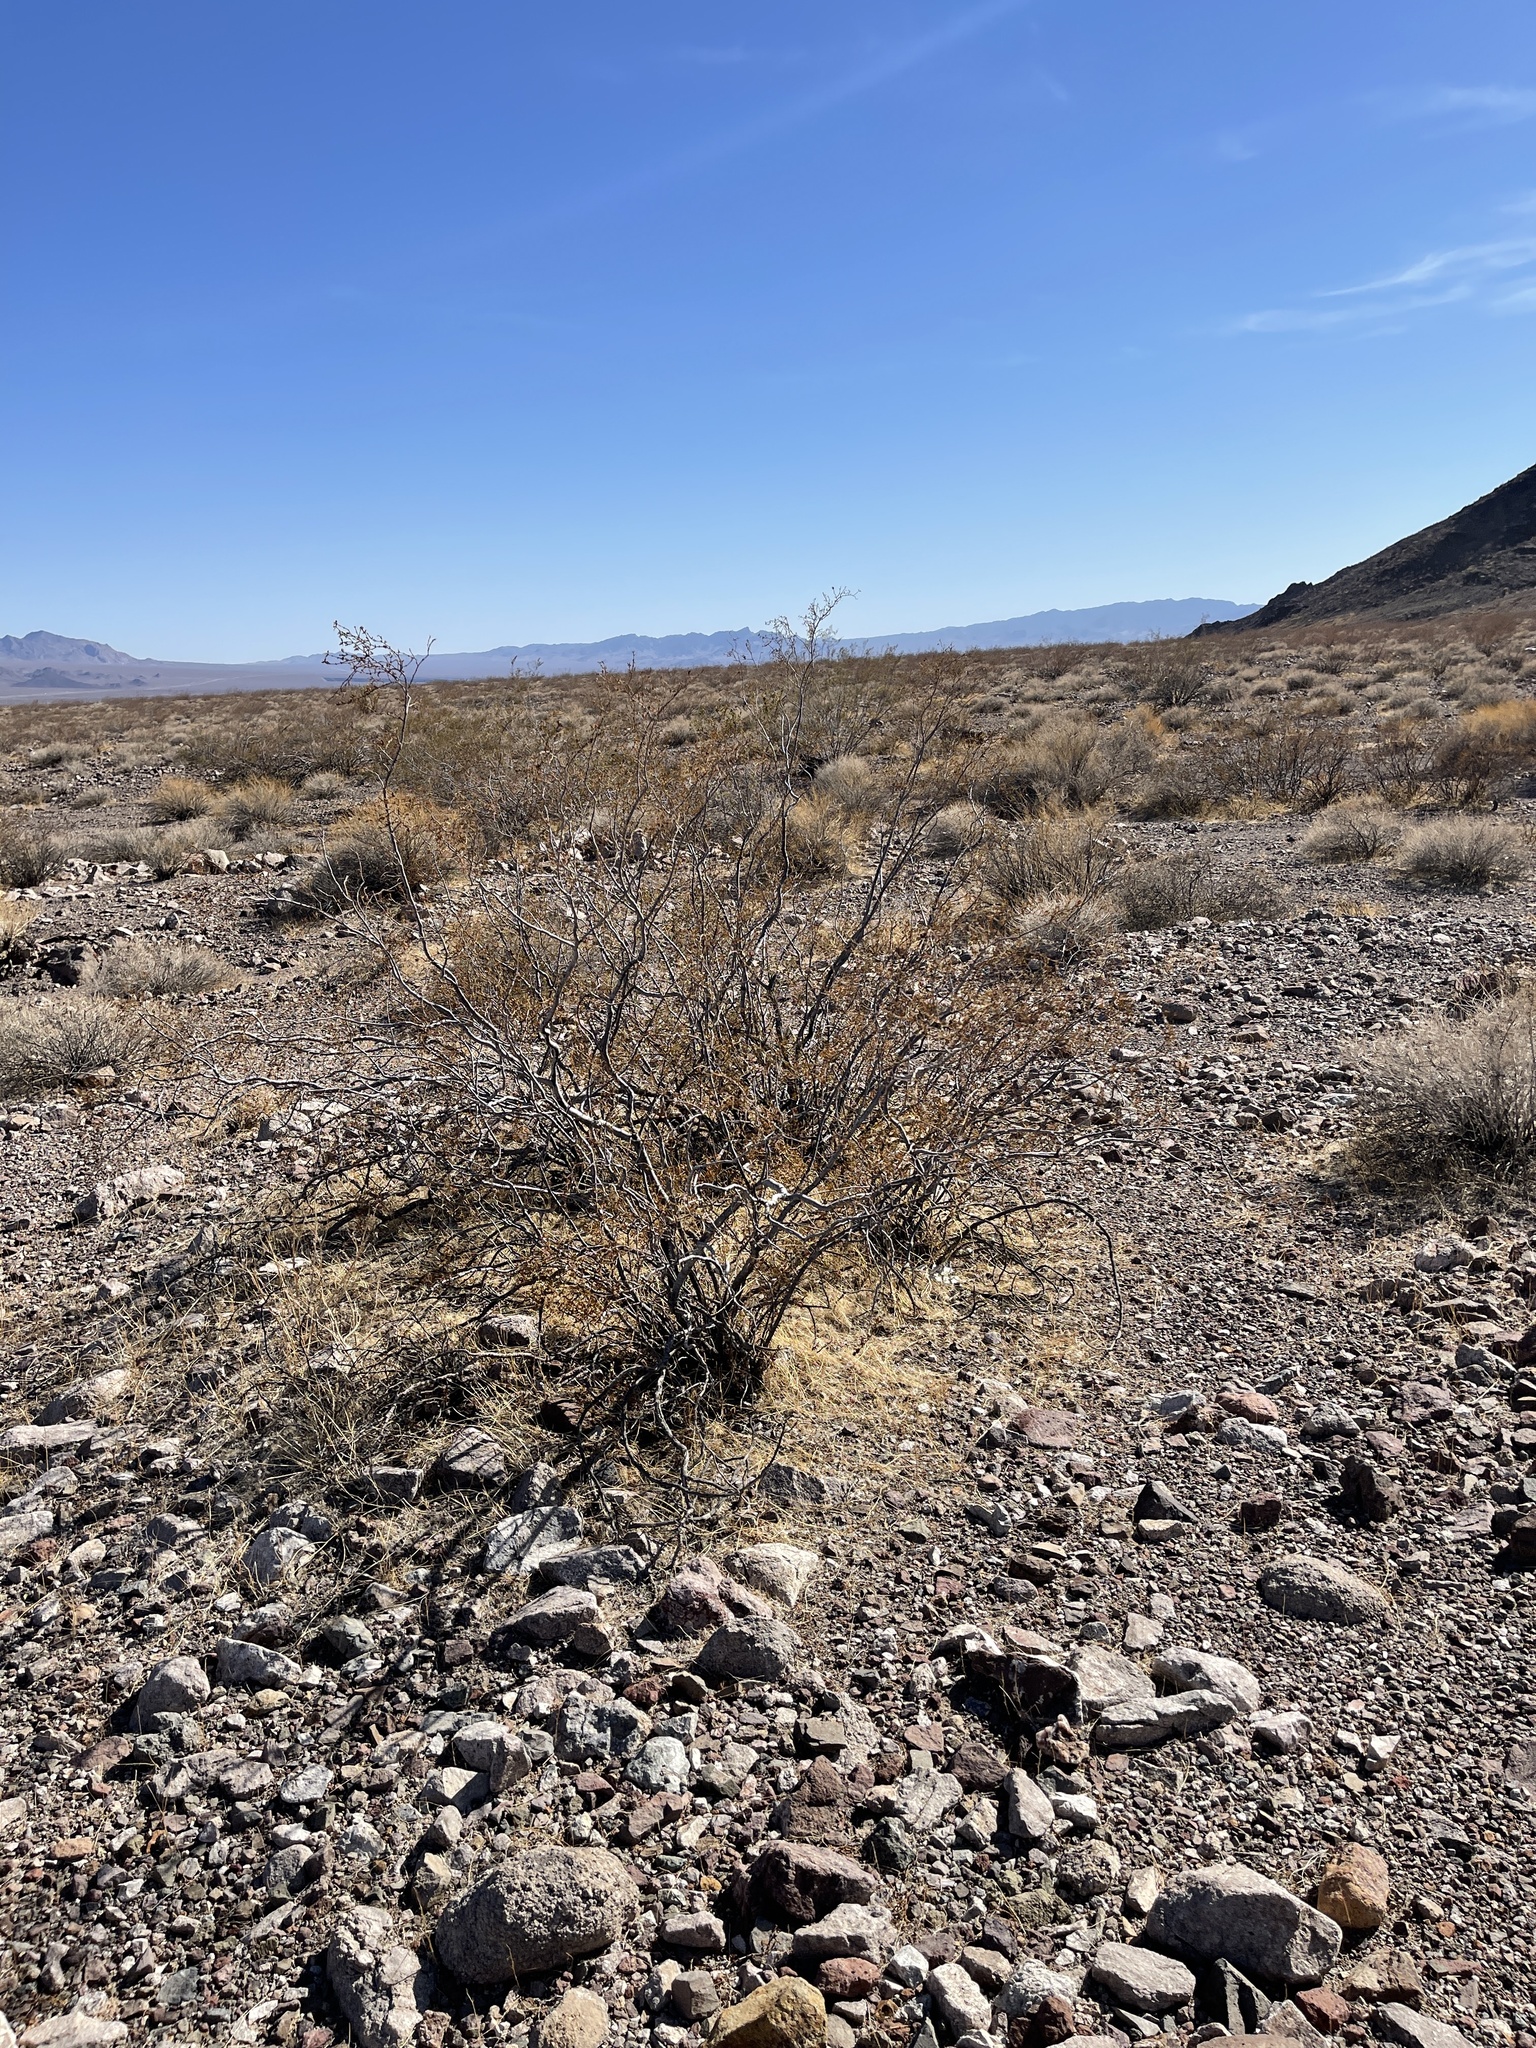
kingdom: Plantae
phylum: Tracheophyta
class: Magnoliopsida
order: Zygophyllales
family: Zygophyllaceae
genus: Larrea
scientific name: Larrea tridentata
